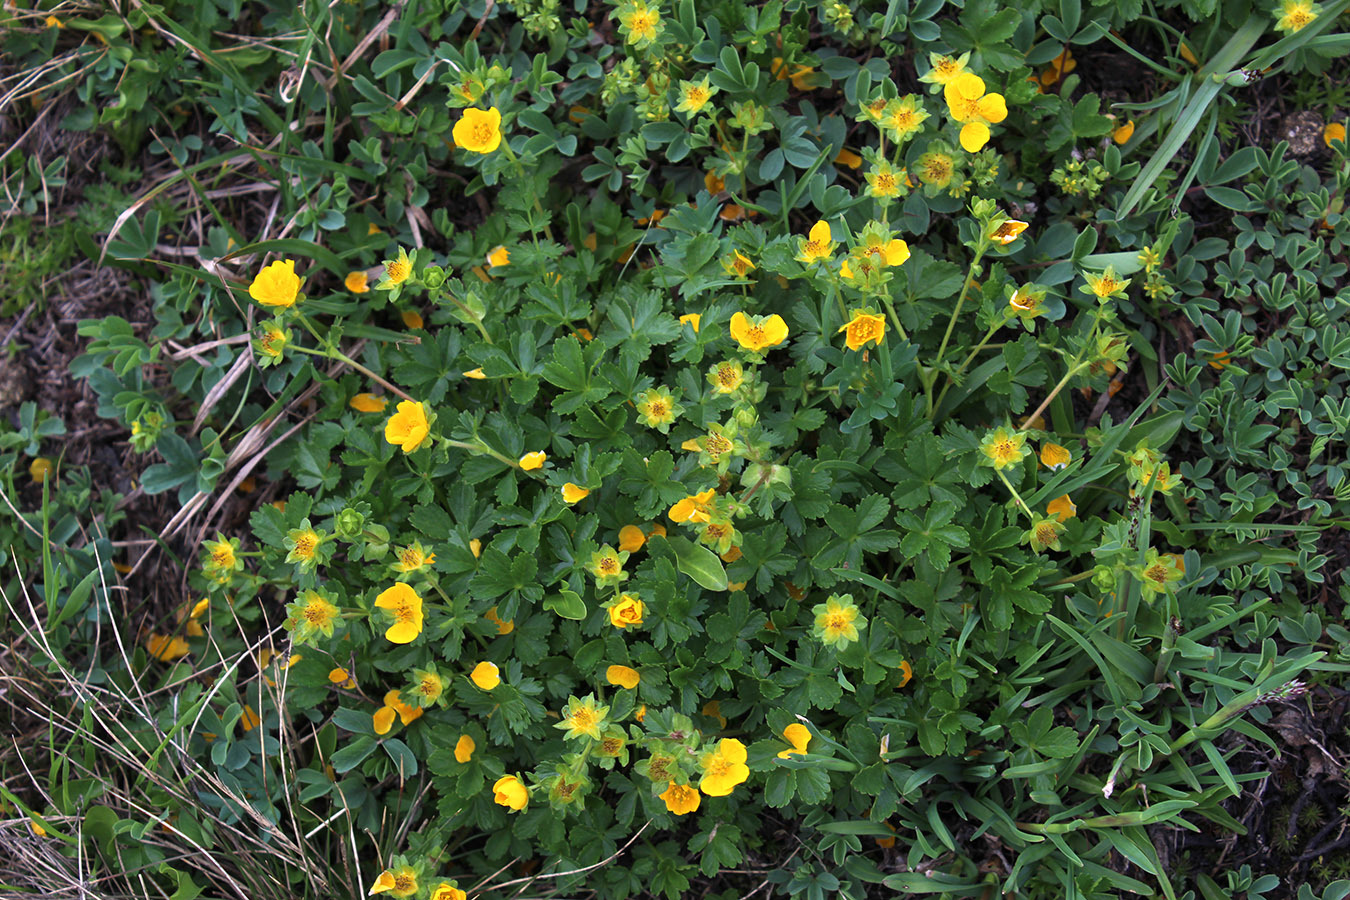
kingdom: Plantae
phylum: Tracheophyta
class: Magnoliopsida
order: Rosales
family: Rosaceae
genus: Potentilla
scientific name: Potentilla ruprechtii
